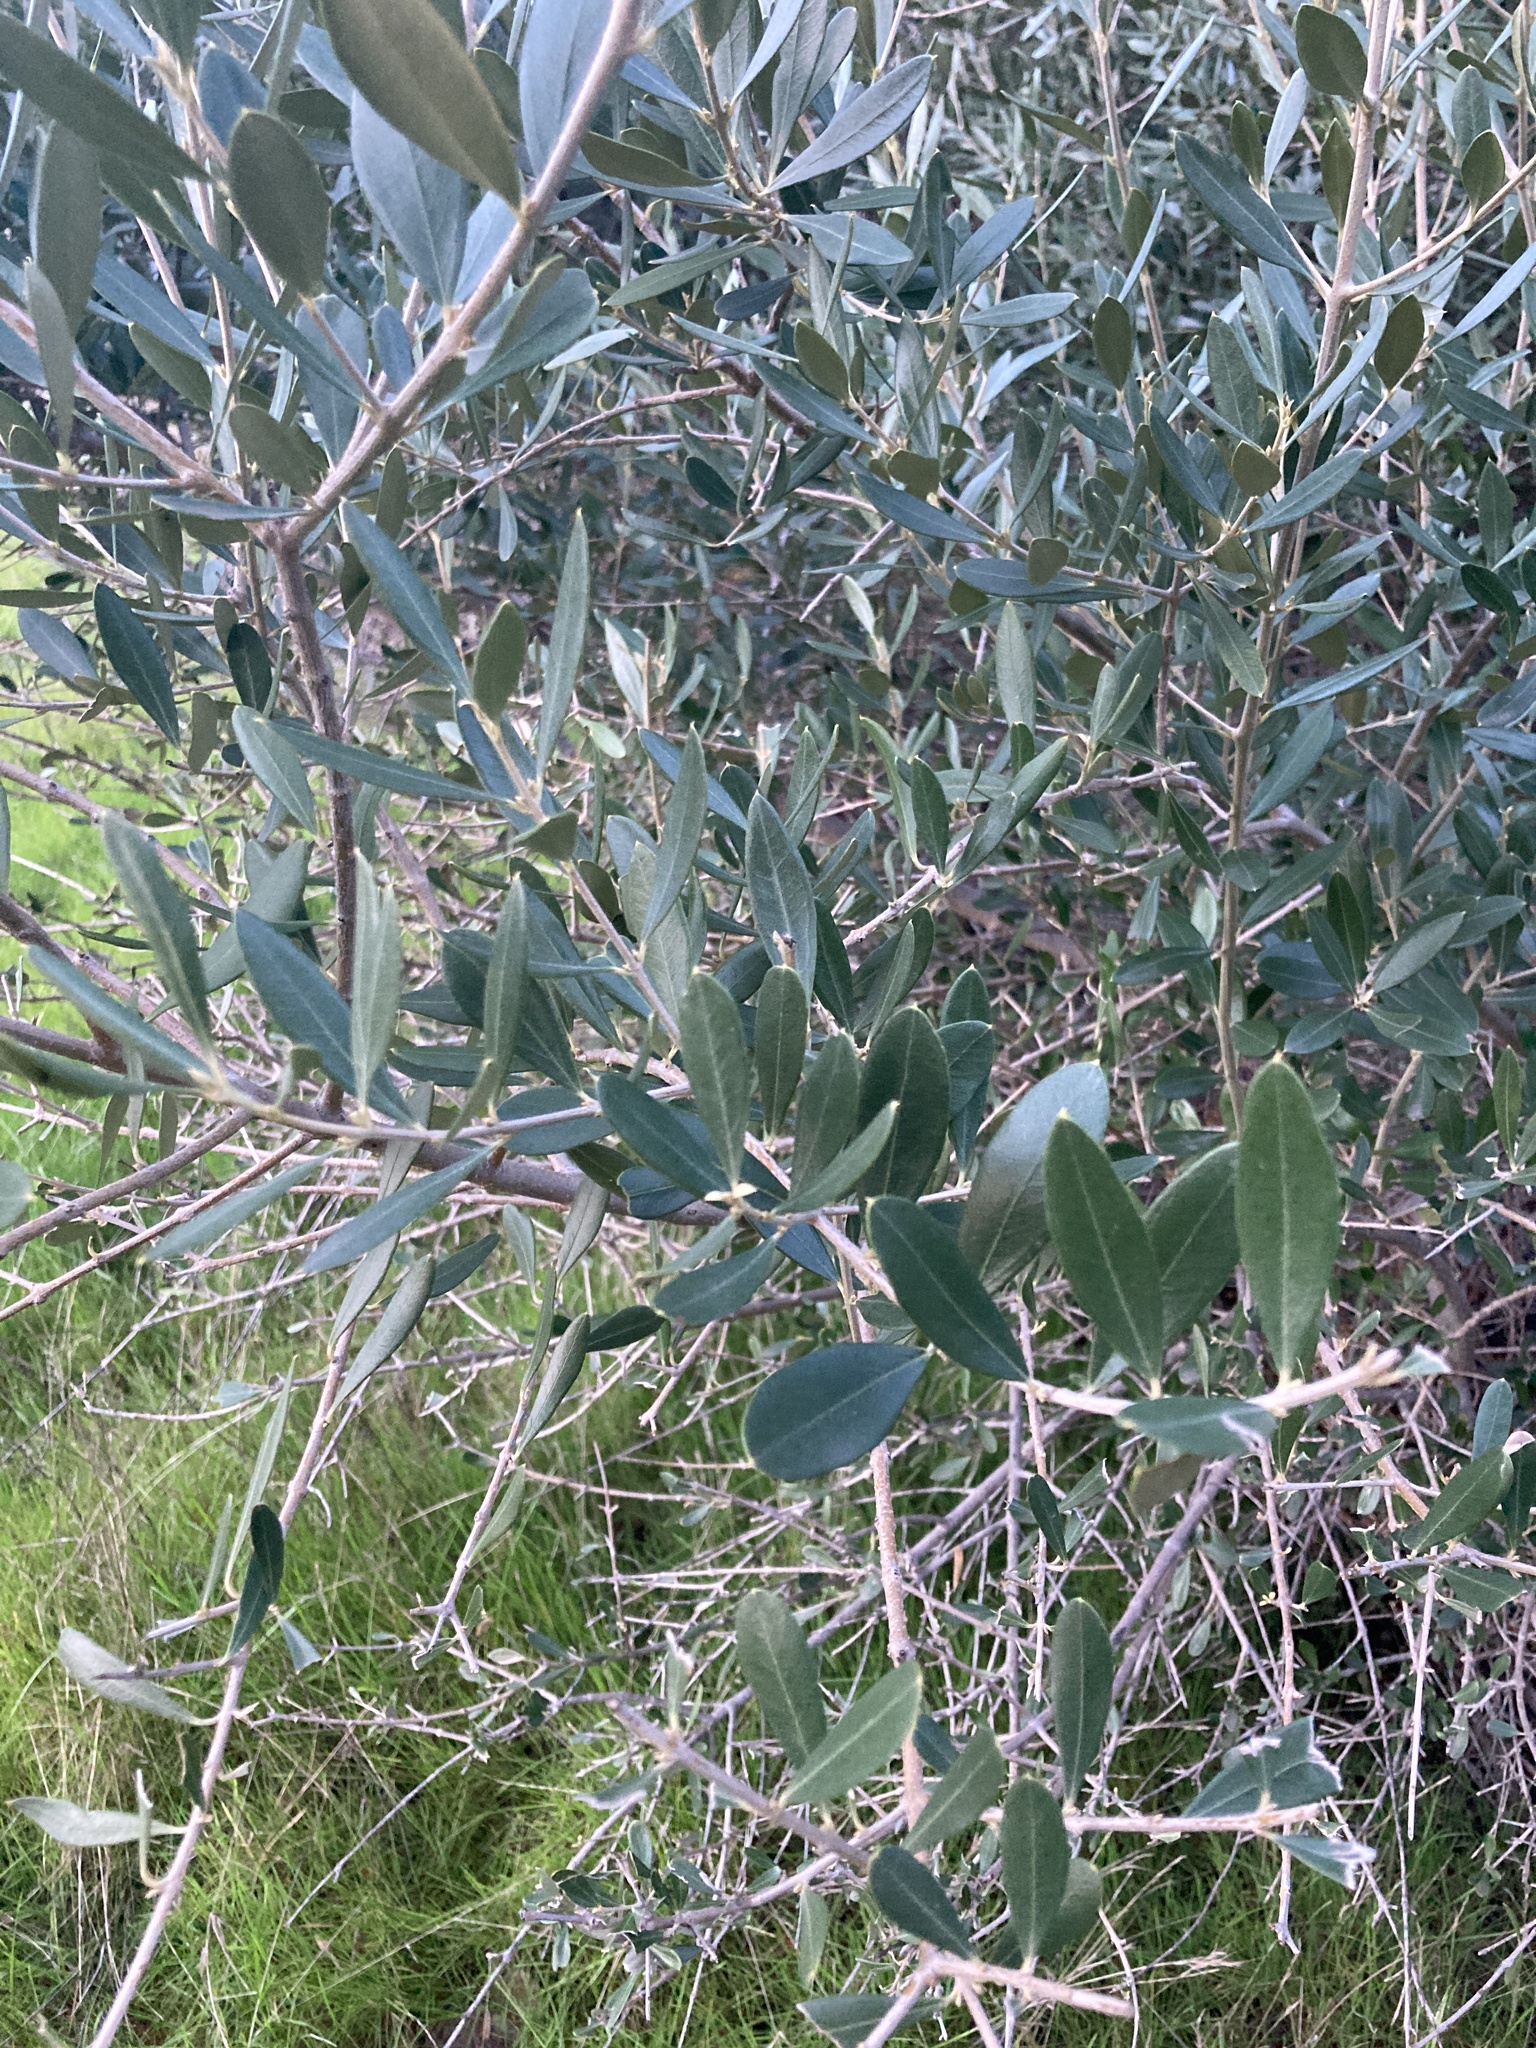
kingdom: Plantae
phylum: Tracheophyta
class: Magnoliopsida
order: Lamiales
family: Oleaceae
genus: Olea
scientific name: Olea europaea
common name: Olive
